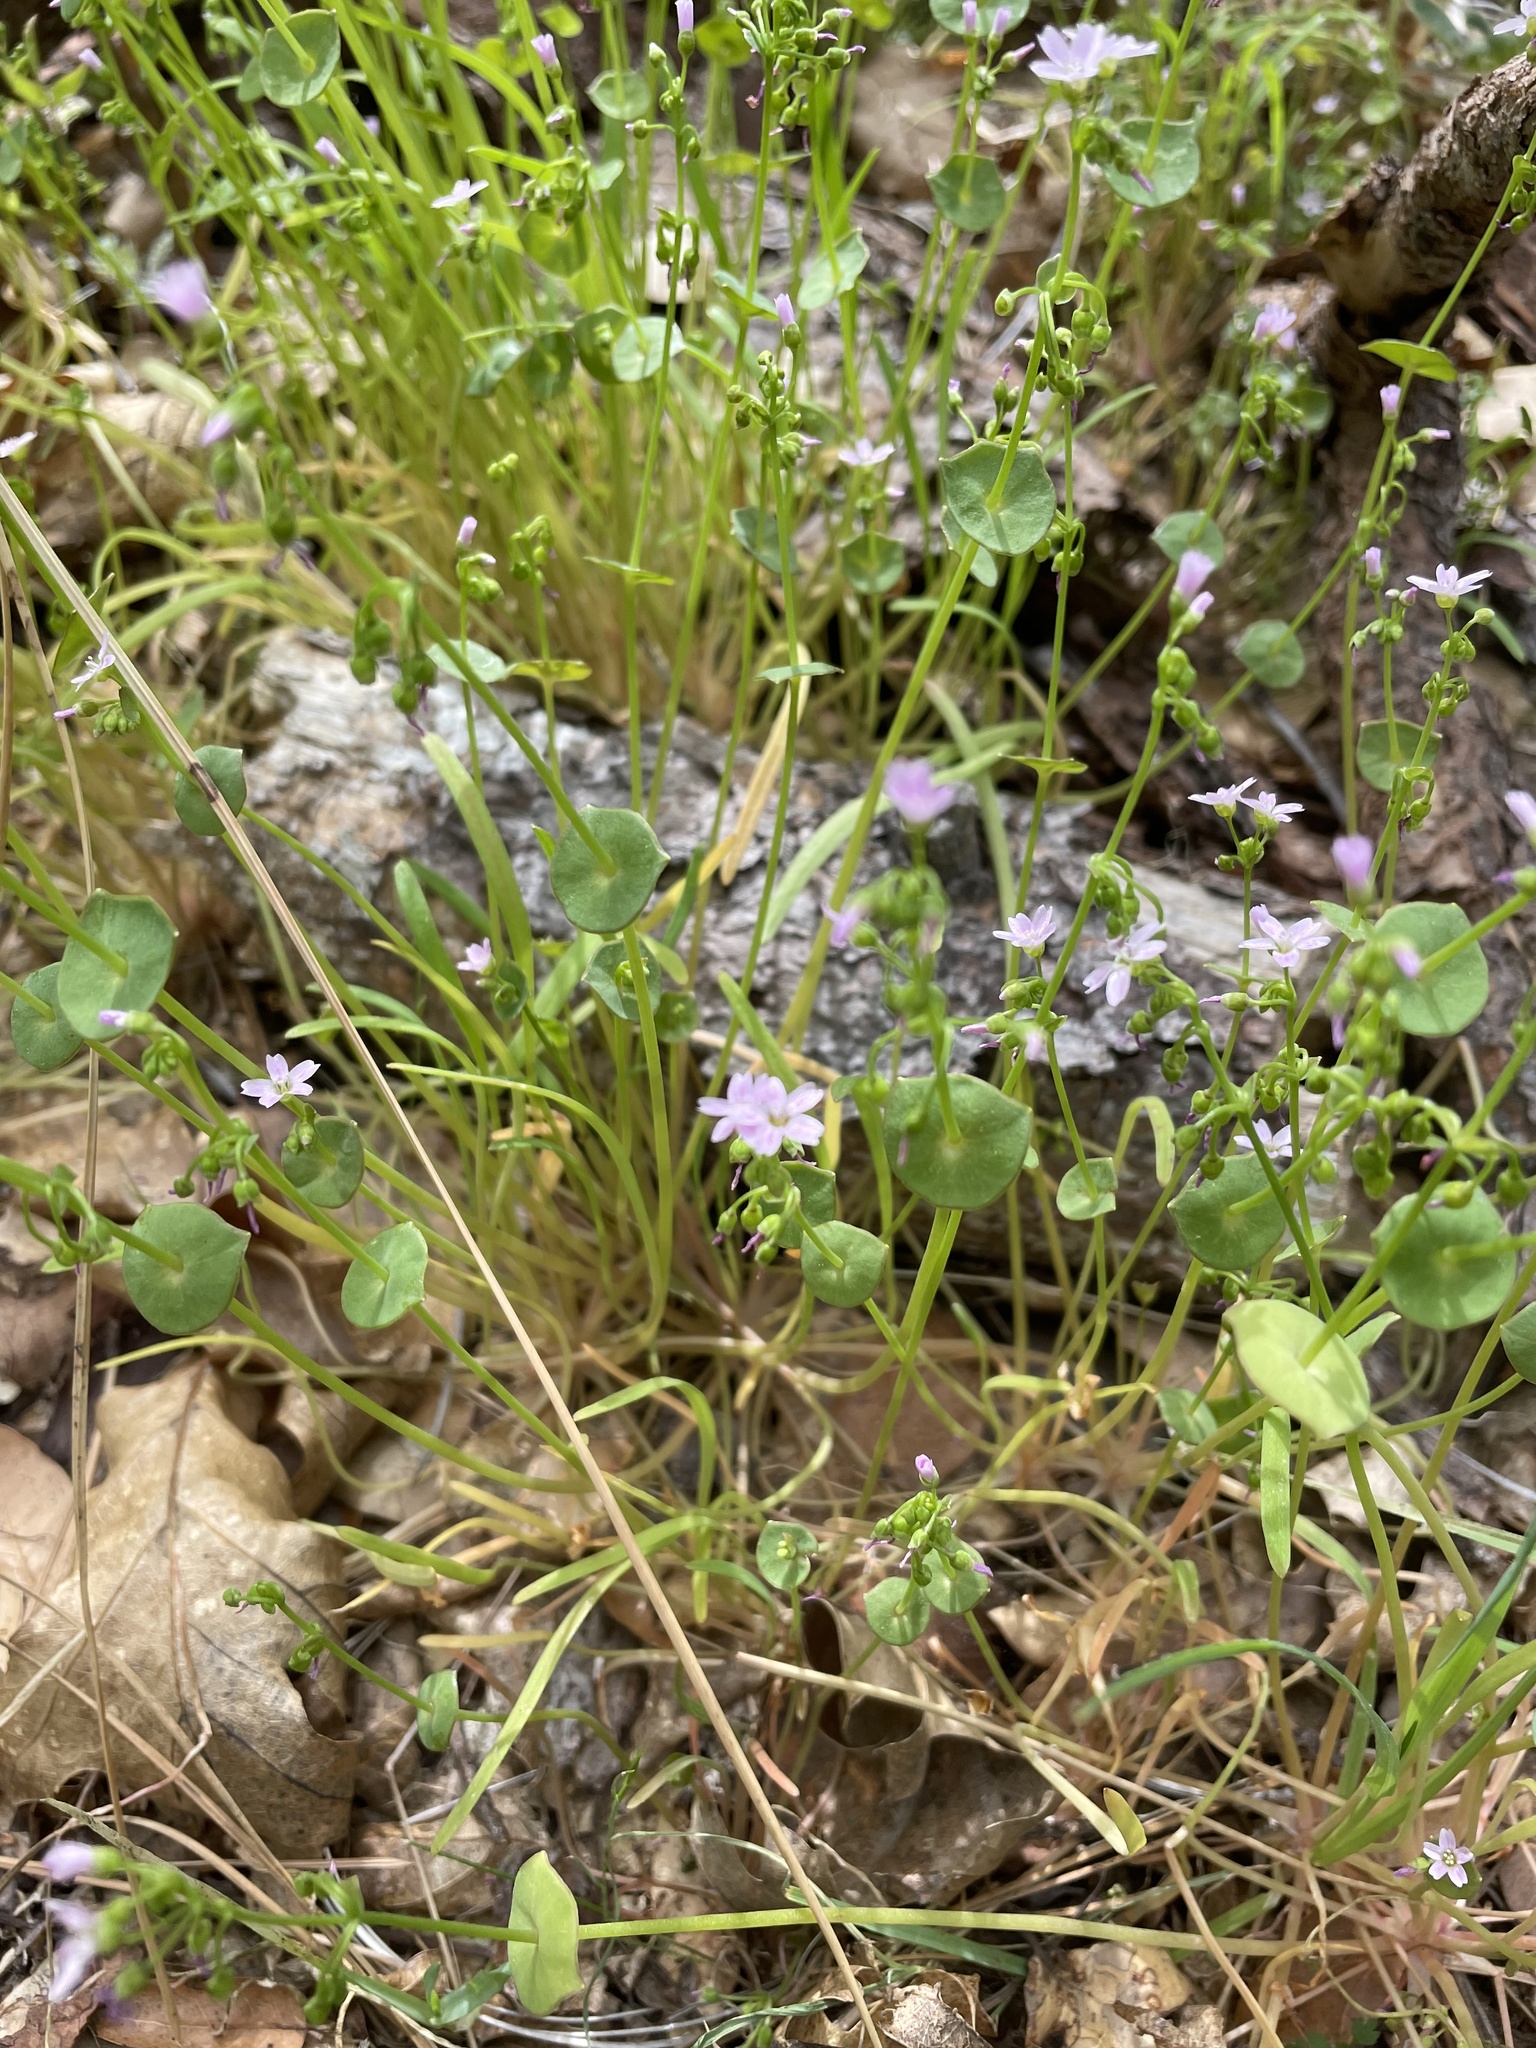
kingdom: Plantae
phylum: Tracheophyta
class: Magnoliopsida
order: Caryophyllales
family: Montiaceae
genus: Claytonia
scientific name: Claytonia parviflora
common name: Indian-lettuce
